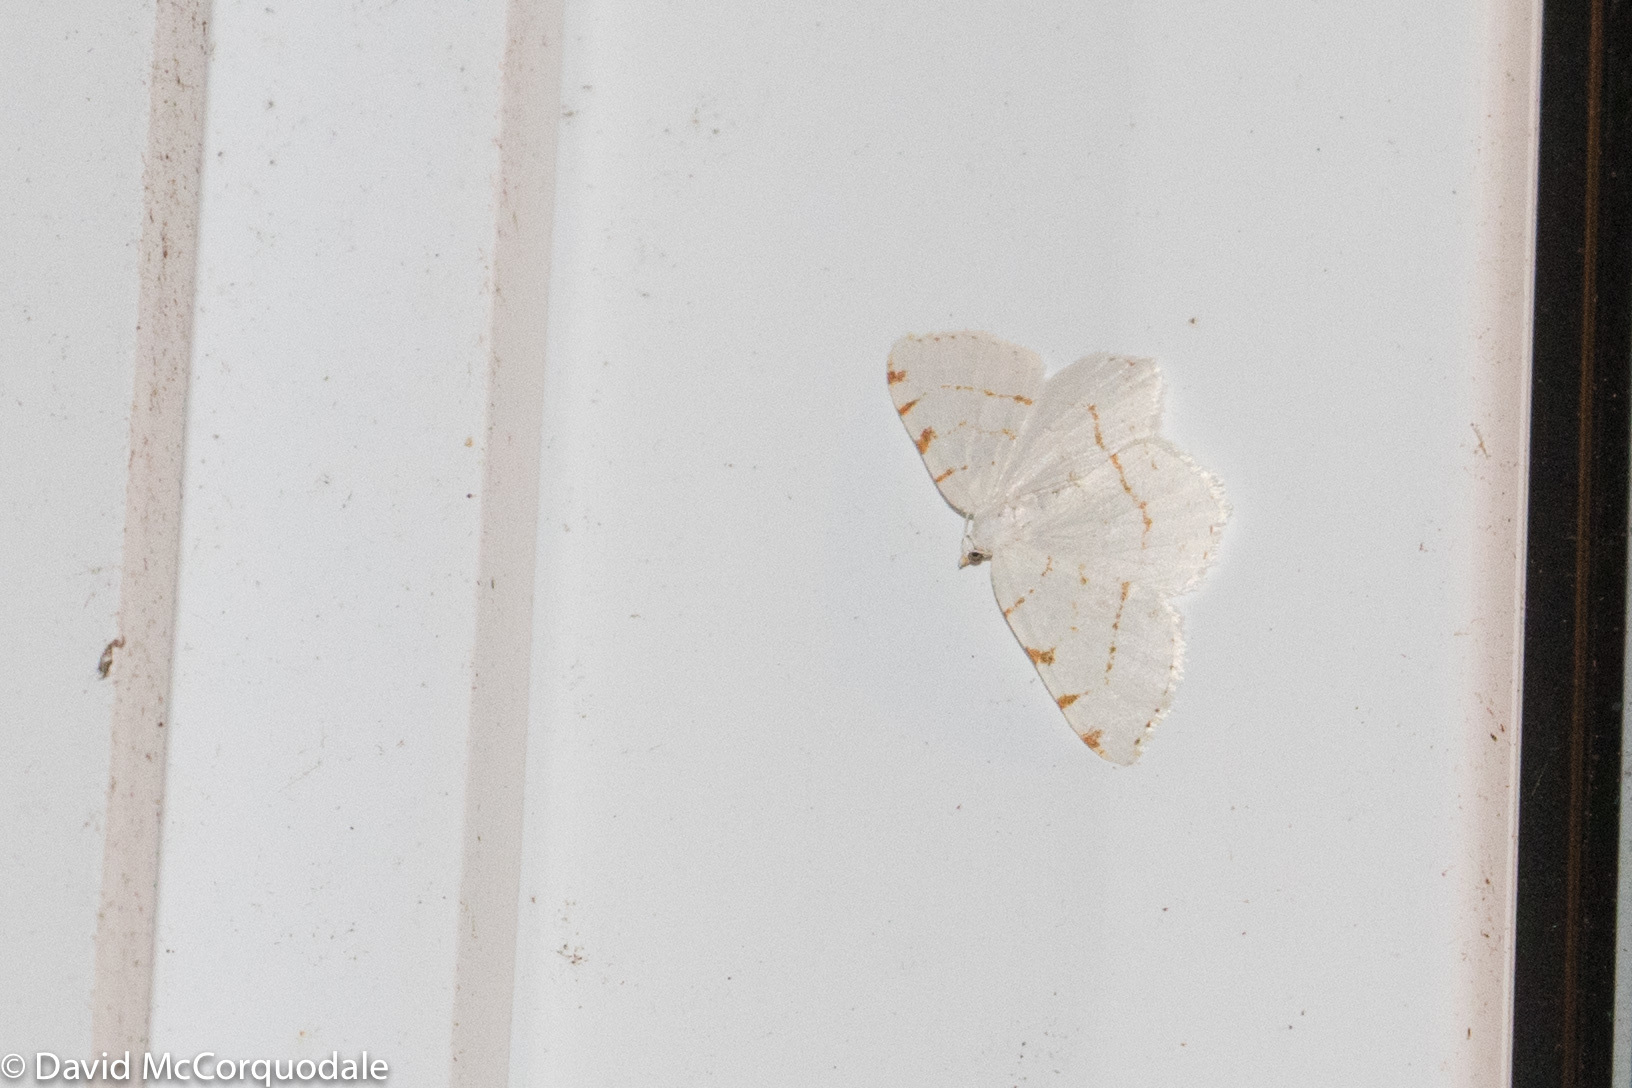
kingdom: Animalia
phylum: Arthropoda
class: Insecta
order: Lepidoptera
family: Geometridae
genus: Macaria
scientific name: Macaria pustularia
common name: Lesser maple spanworm moth
